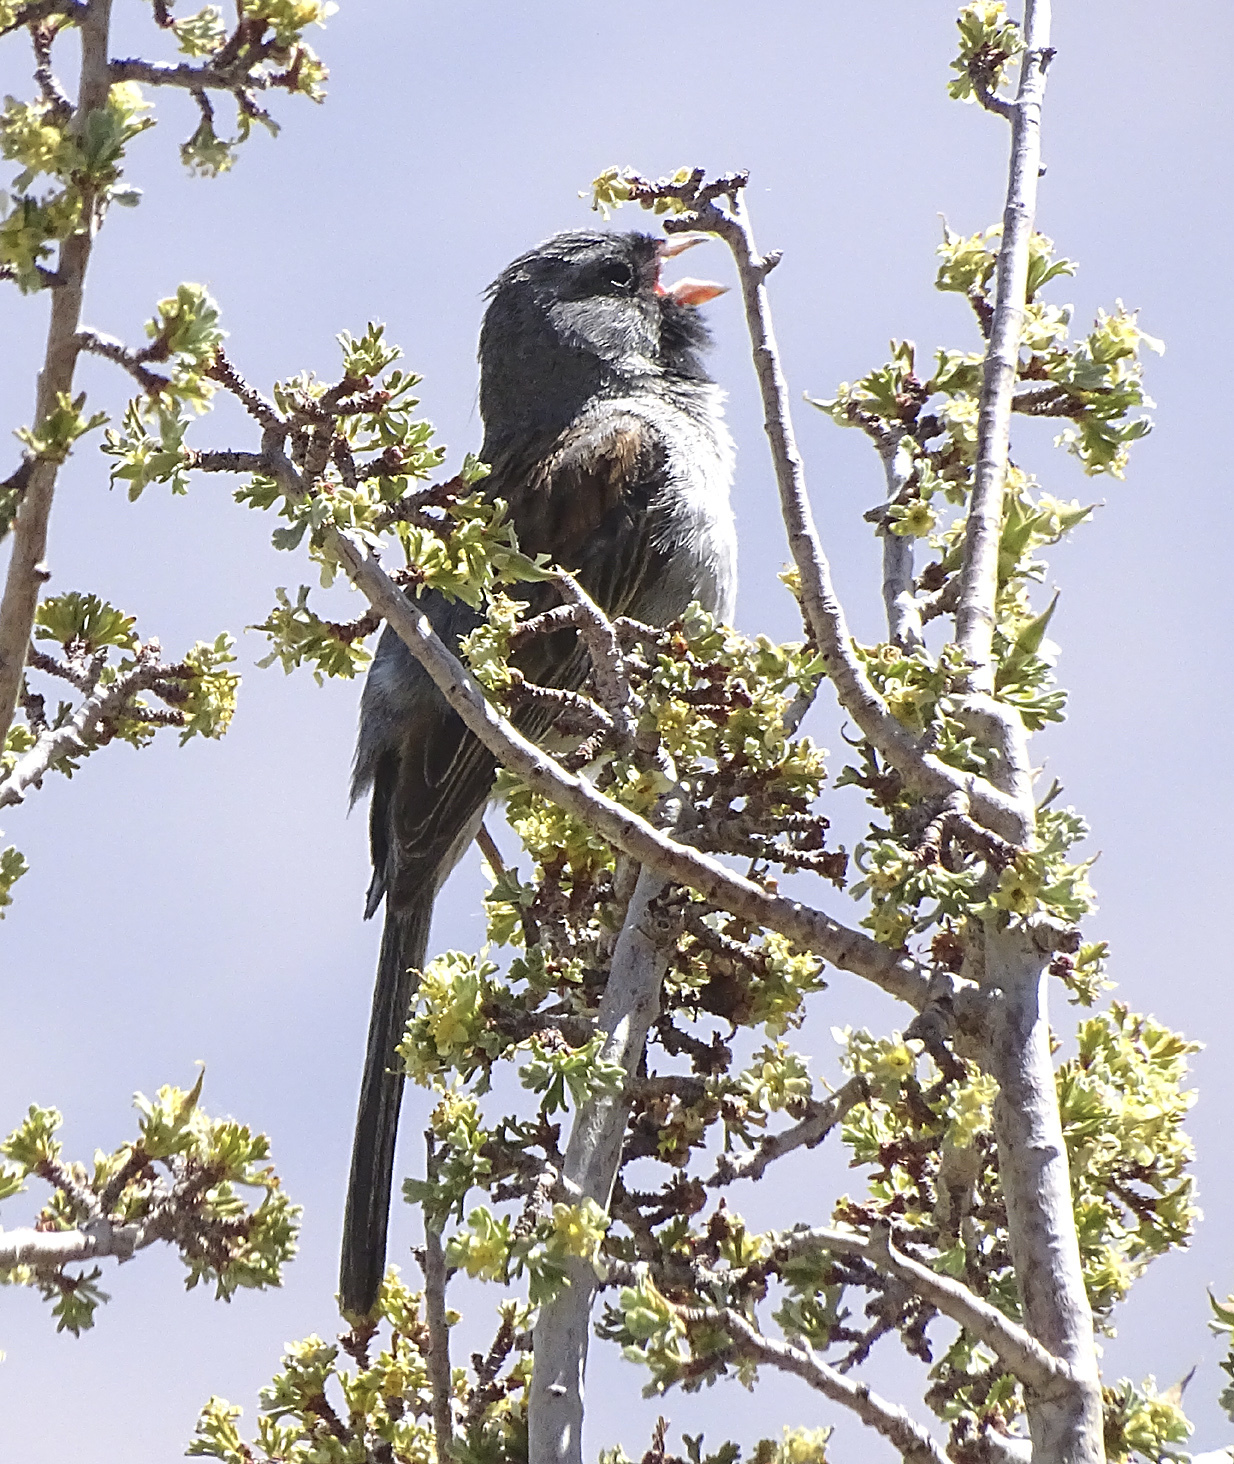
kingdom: Animalia
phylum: Chordata
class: Aves
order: Passeriformes
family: Passerellidae
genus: Spizella
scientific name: Spizella atrogularis
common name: Black-chinned sparrow
